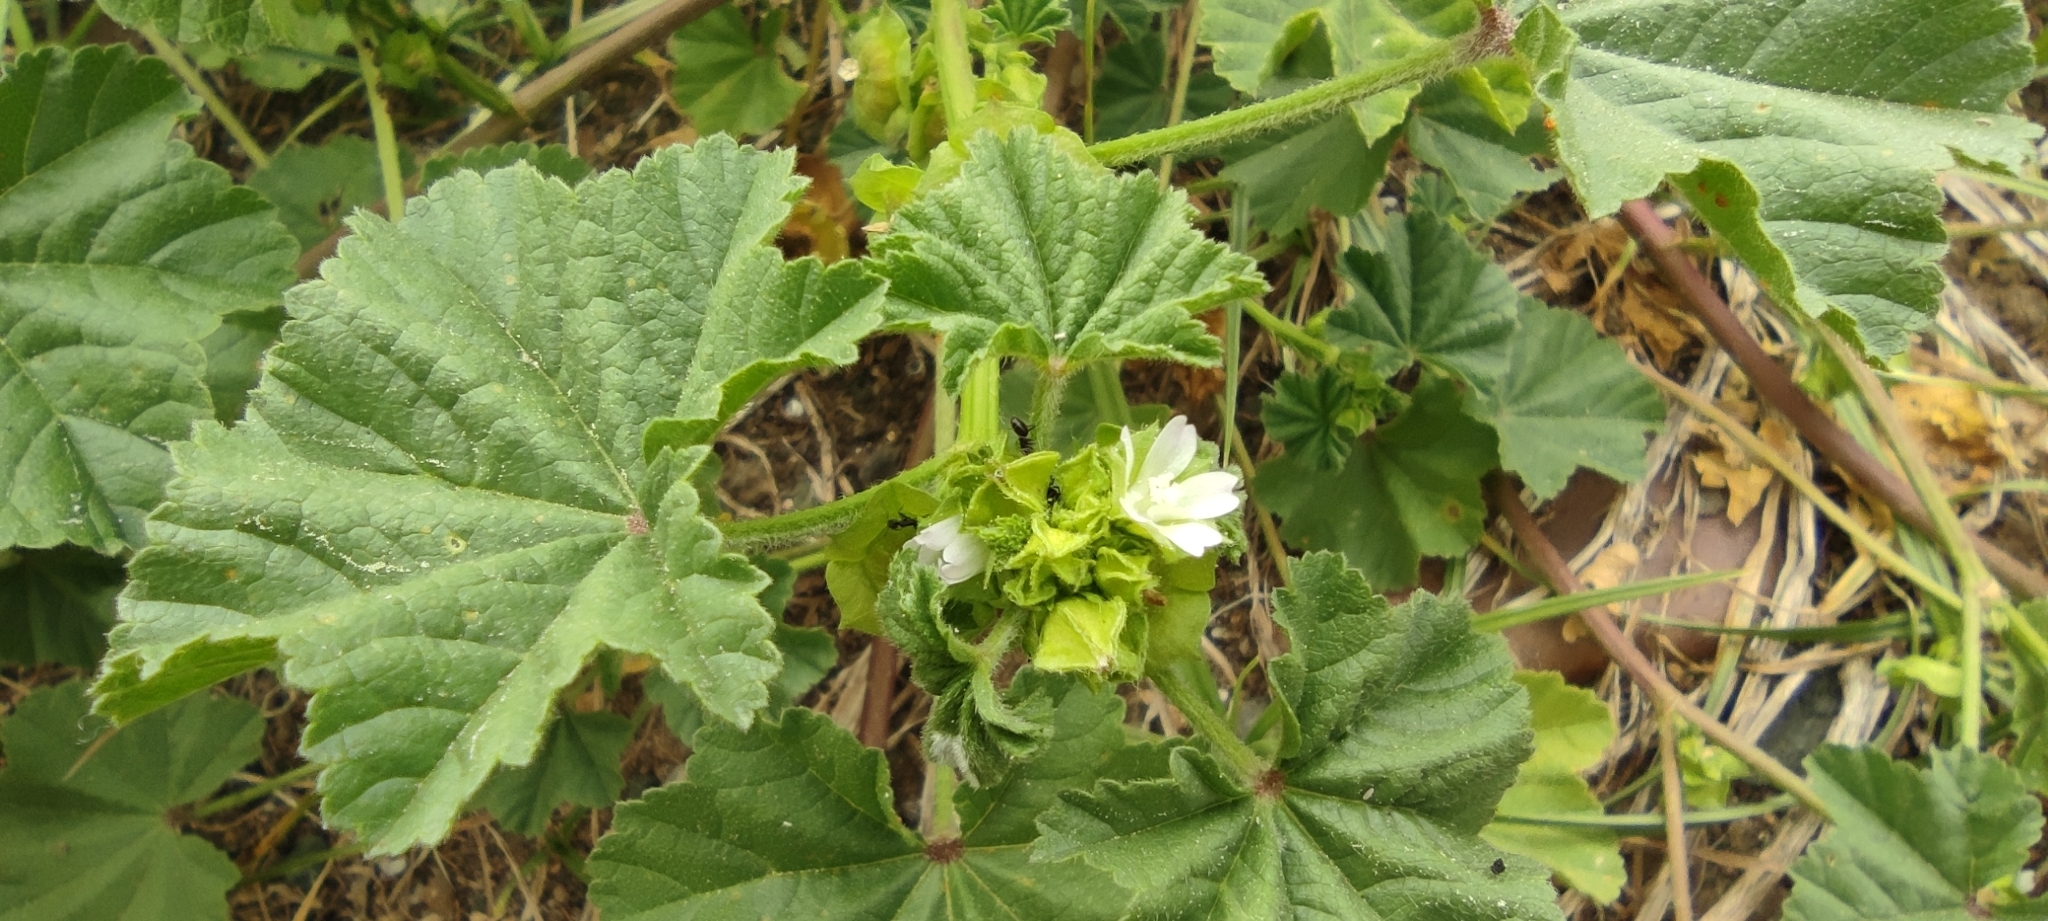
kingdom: Plantae
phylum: Tracheophyta
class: Magnoliopsida
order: Malvales
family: Malvaceae
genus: Malva
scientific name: Malva parviflora
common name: Least mallow
